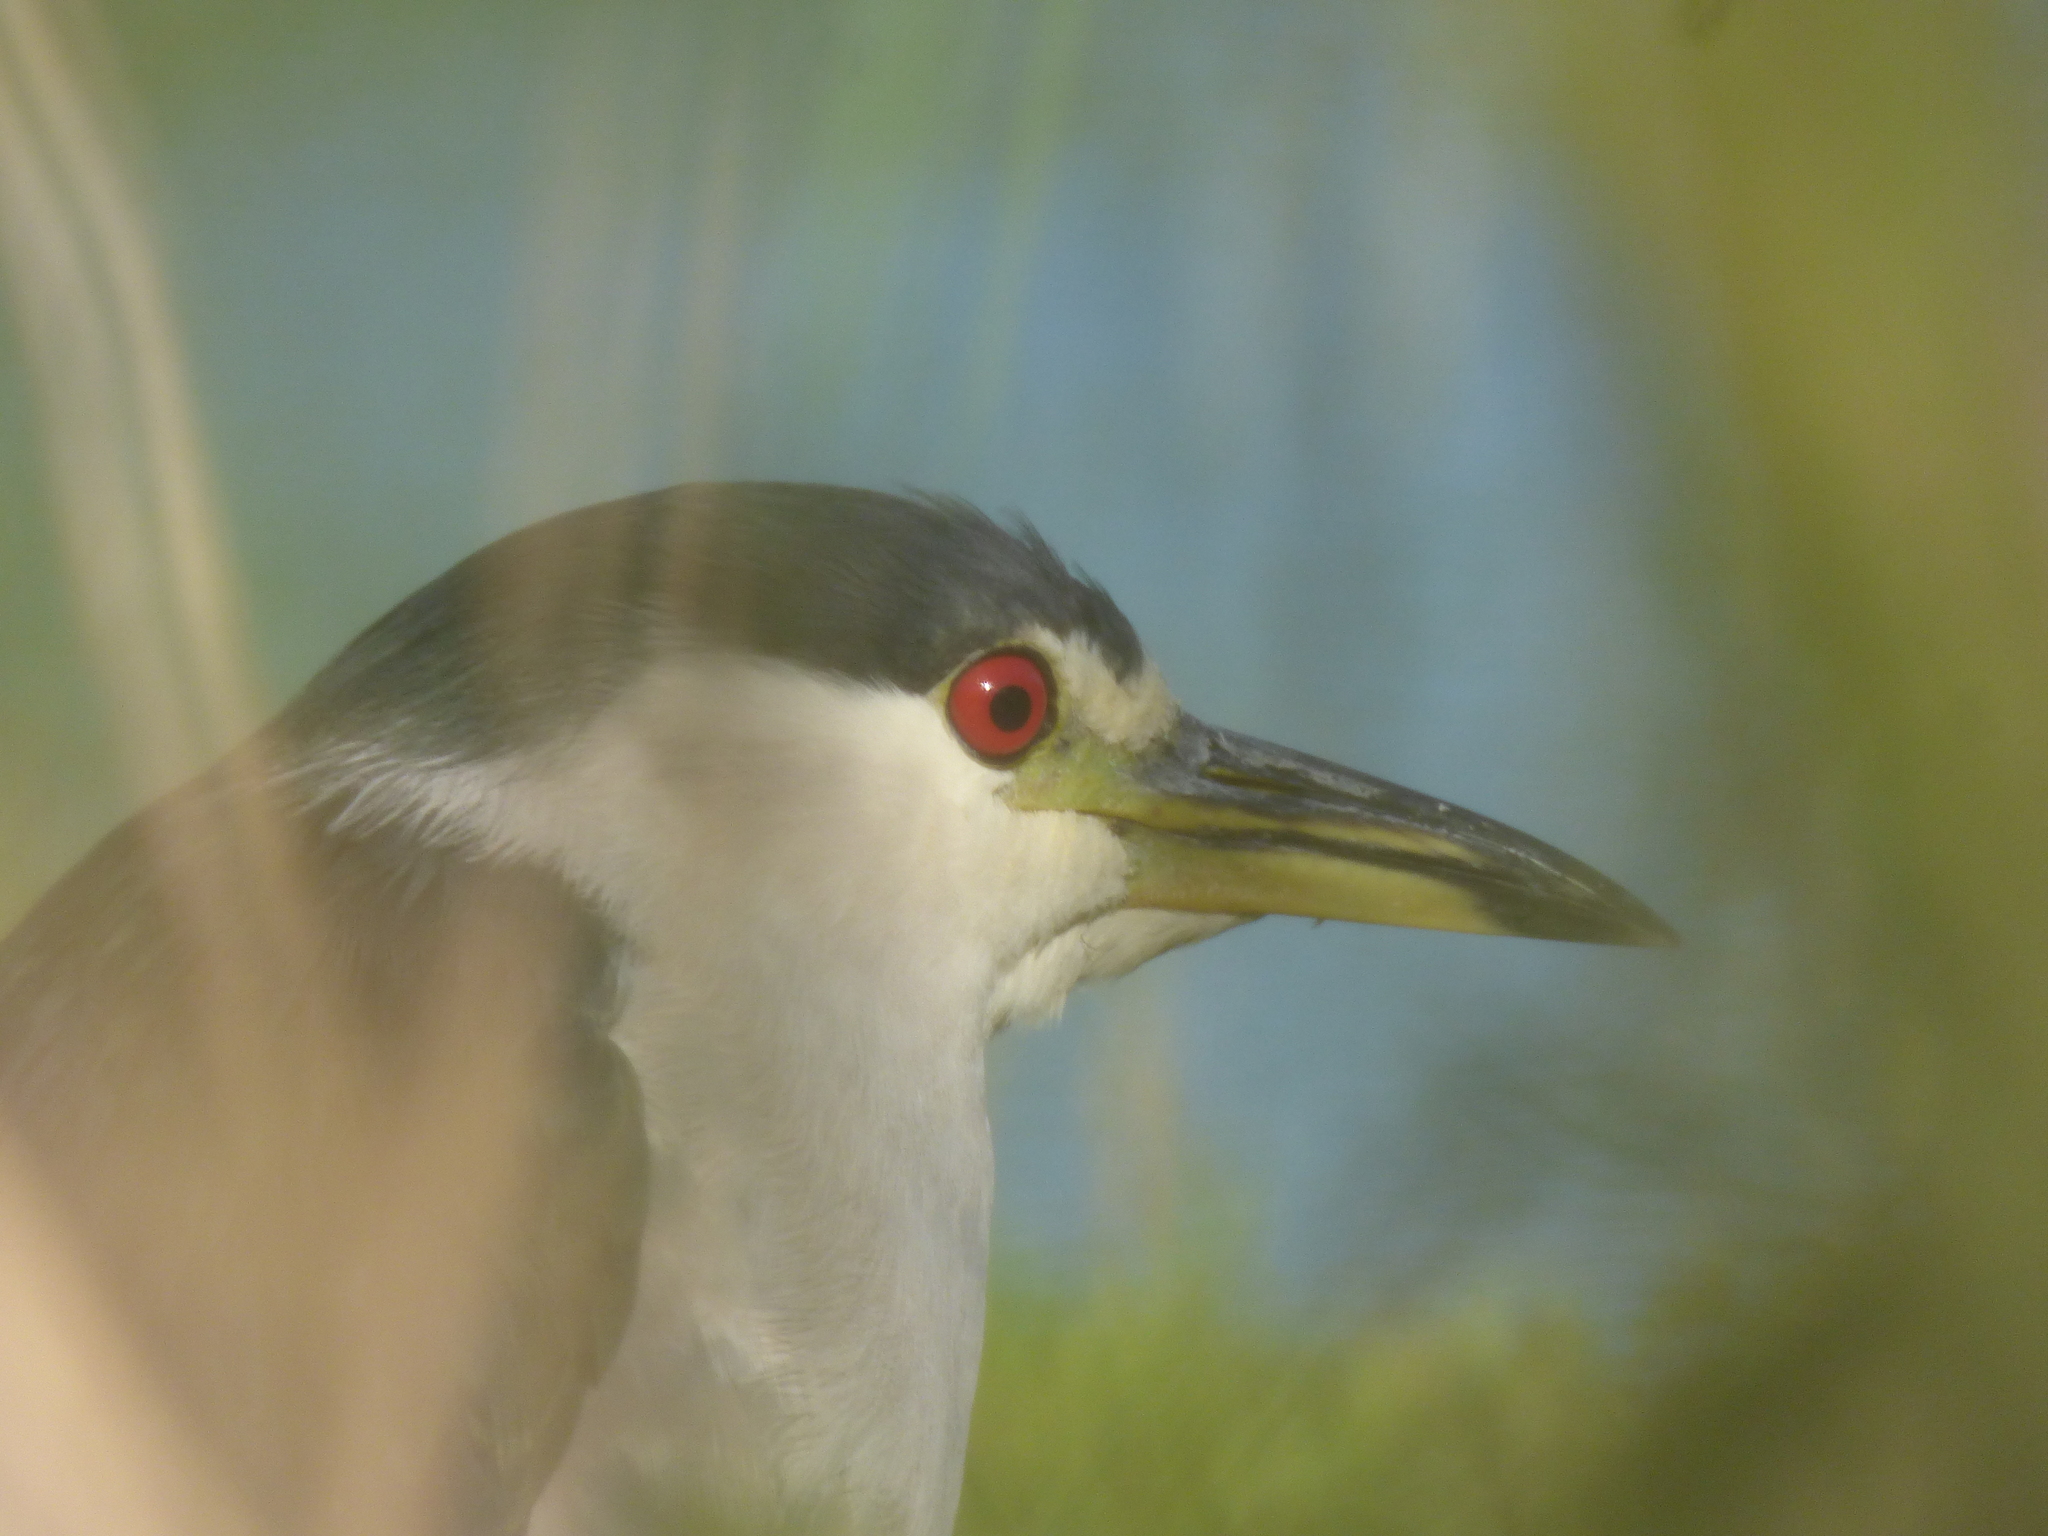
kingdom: Animalia
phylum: Chordata
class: Aves
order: Pelecaniformes
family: Ardeidae
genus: Nycticorax
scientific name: Nycticorax nycticorax
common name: Black-crowned night heron
